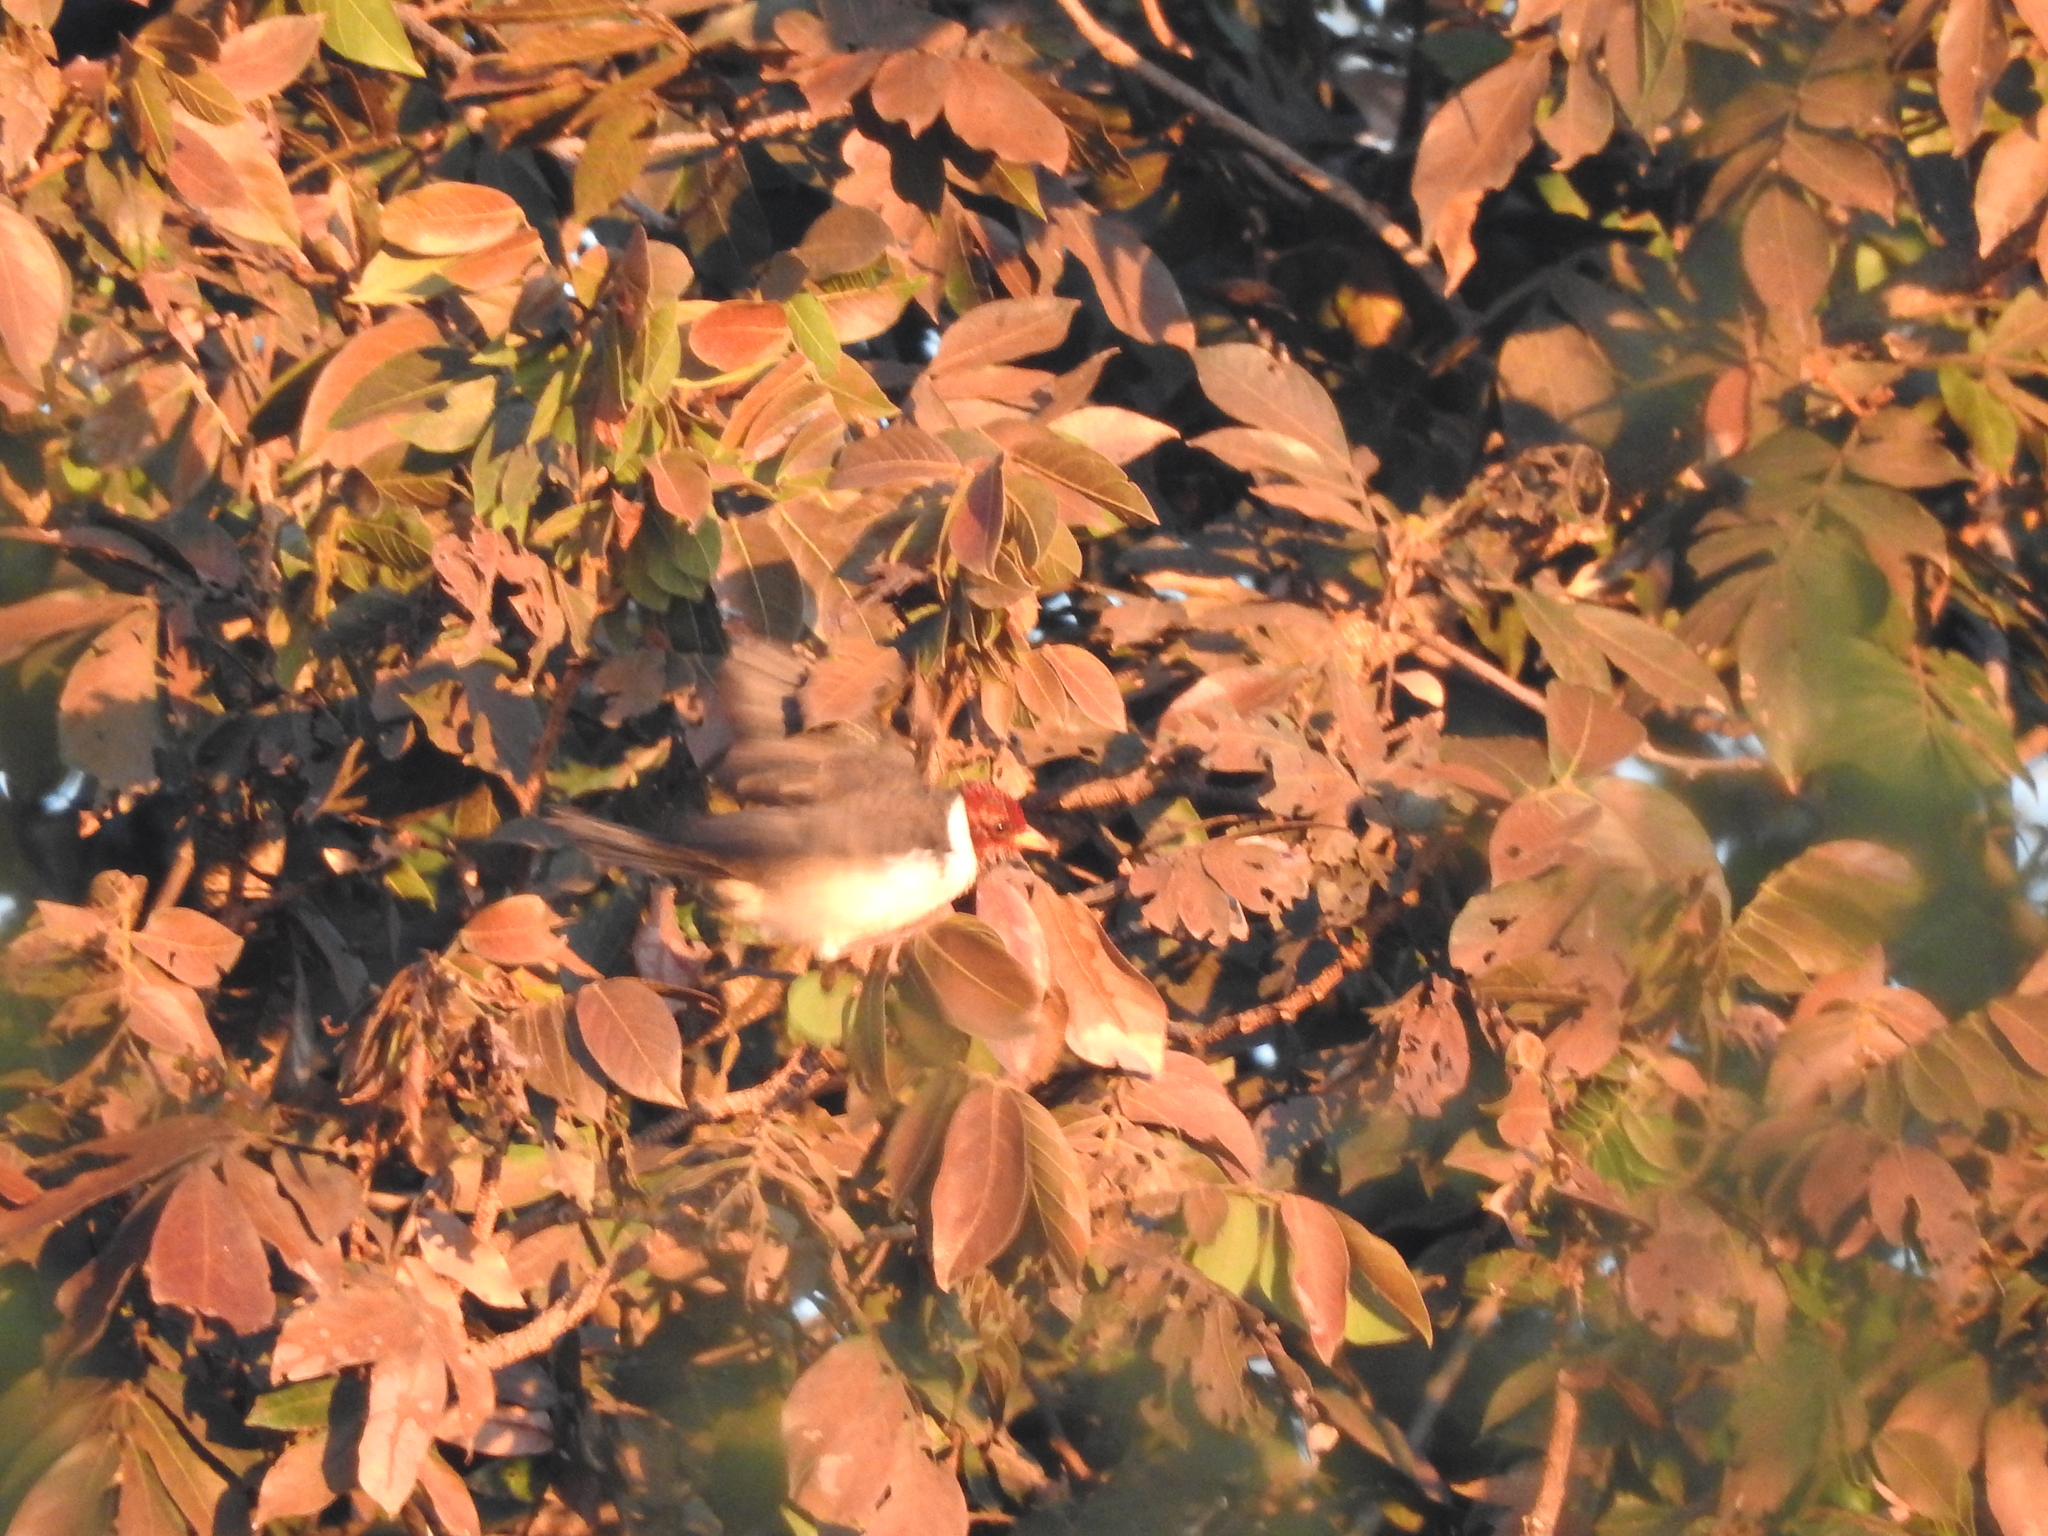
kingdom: Animalia
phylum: Chordata
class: Aves
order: Passeriformes
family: Thraupidae
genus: Paroaria
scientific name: Paroaria capitata
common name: Yellow-billed cardinal
